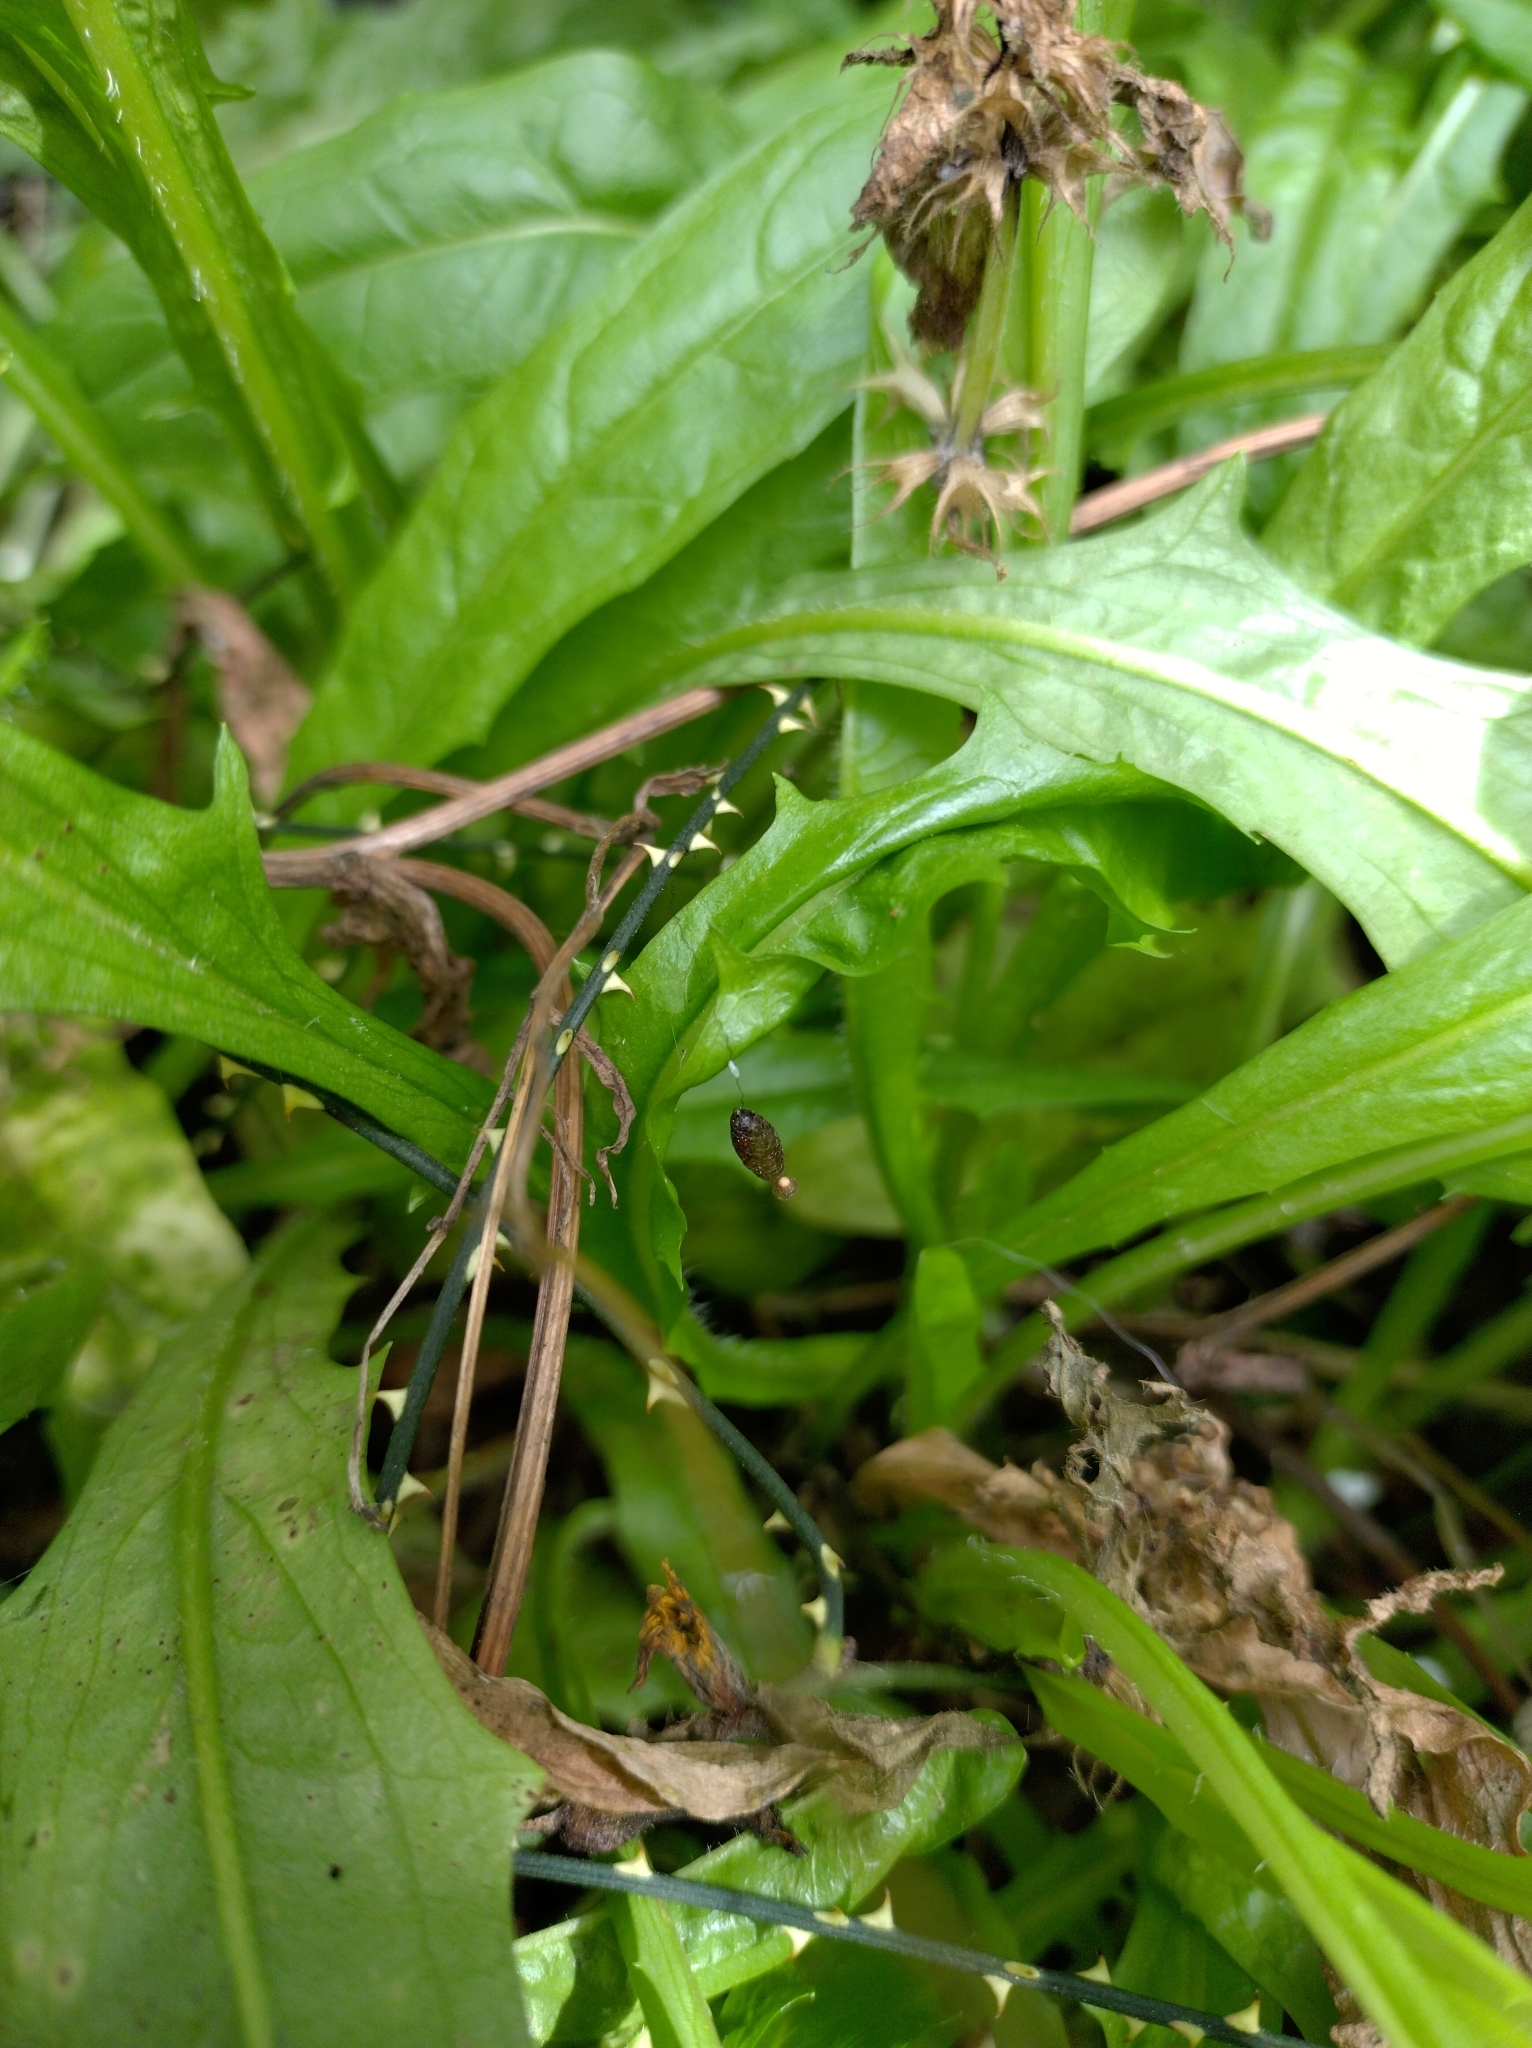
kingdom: Animalia
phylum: Arthropoda
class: Insecta
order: Hymenoptera
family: Braconidae
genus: Meteorus
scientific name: Meteorus pulchricornis
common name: Braconid wasp
